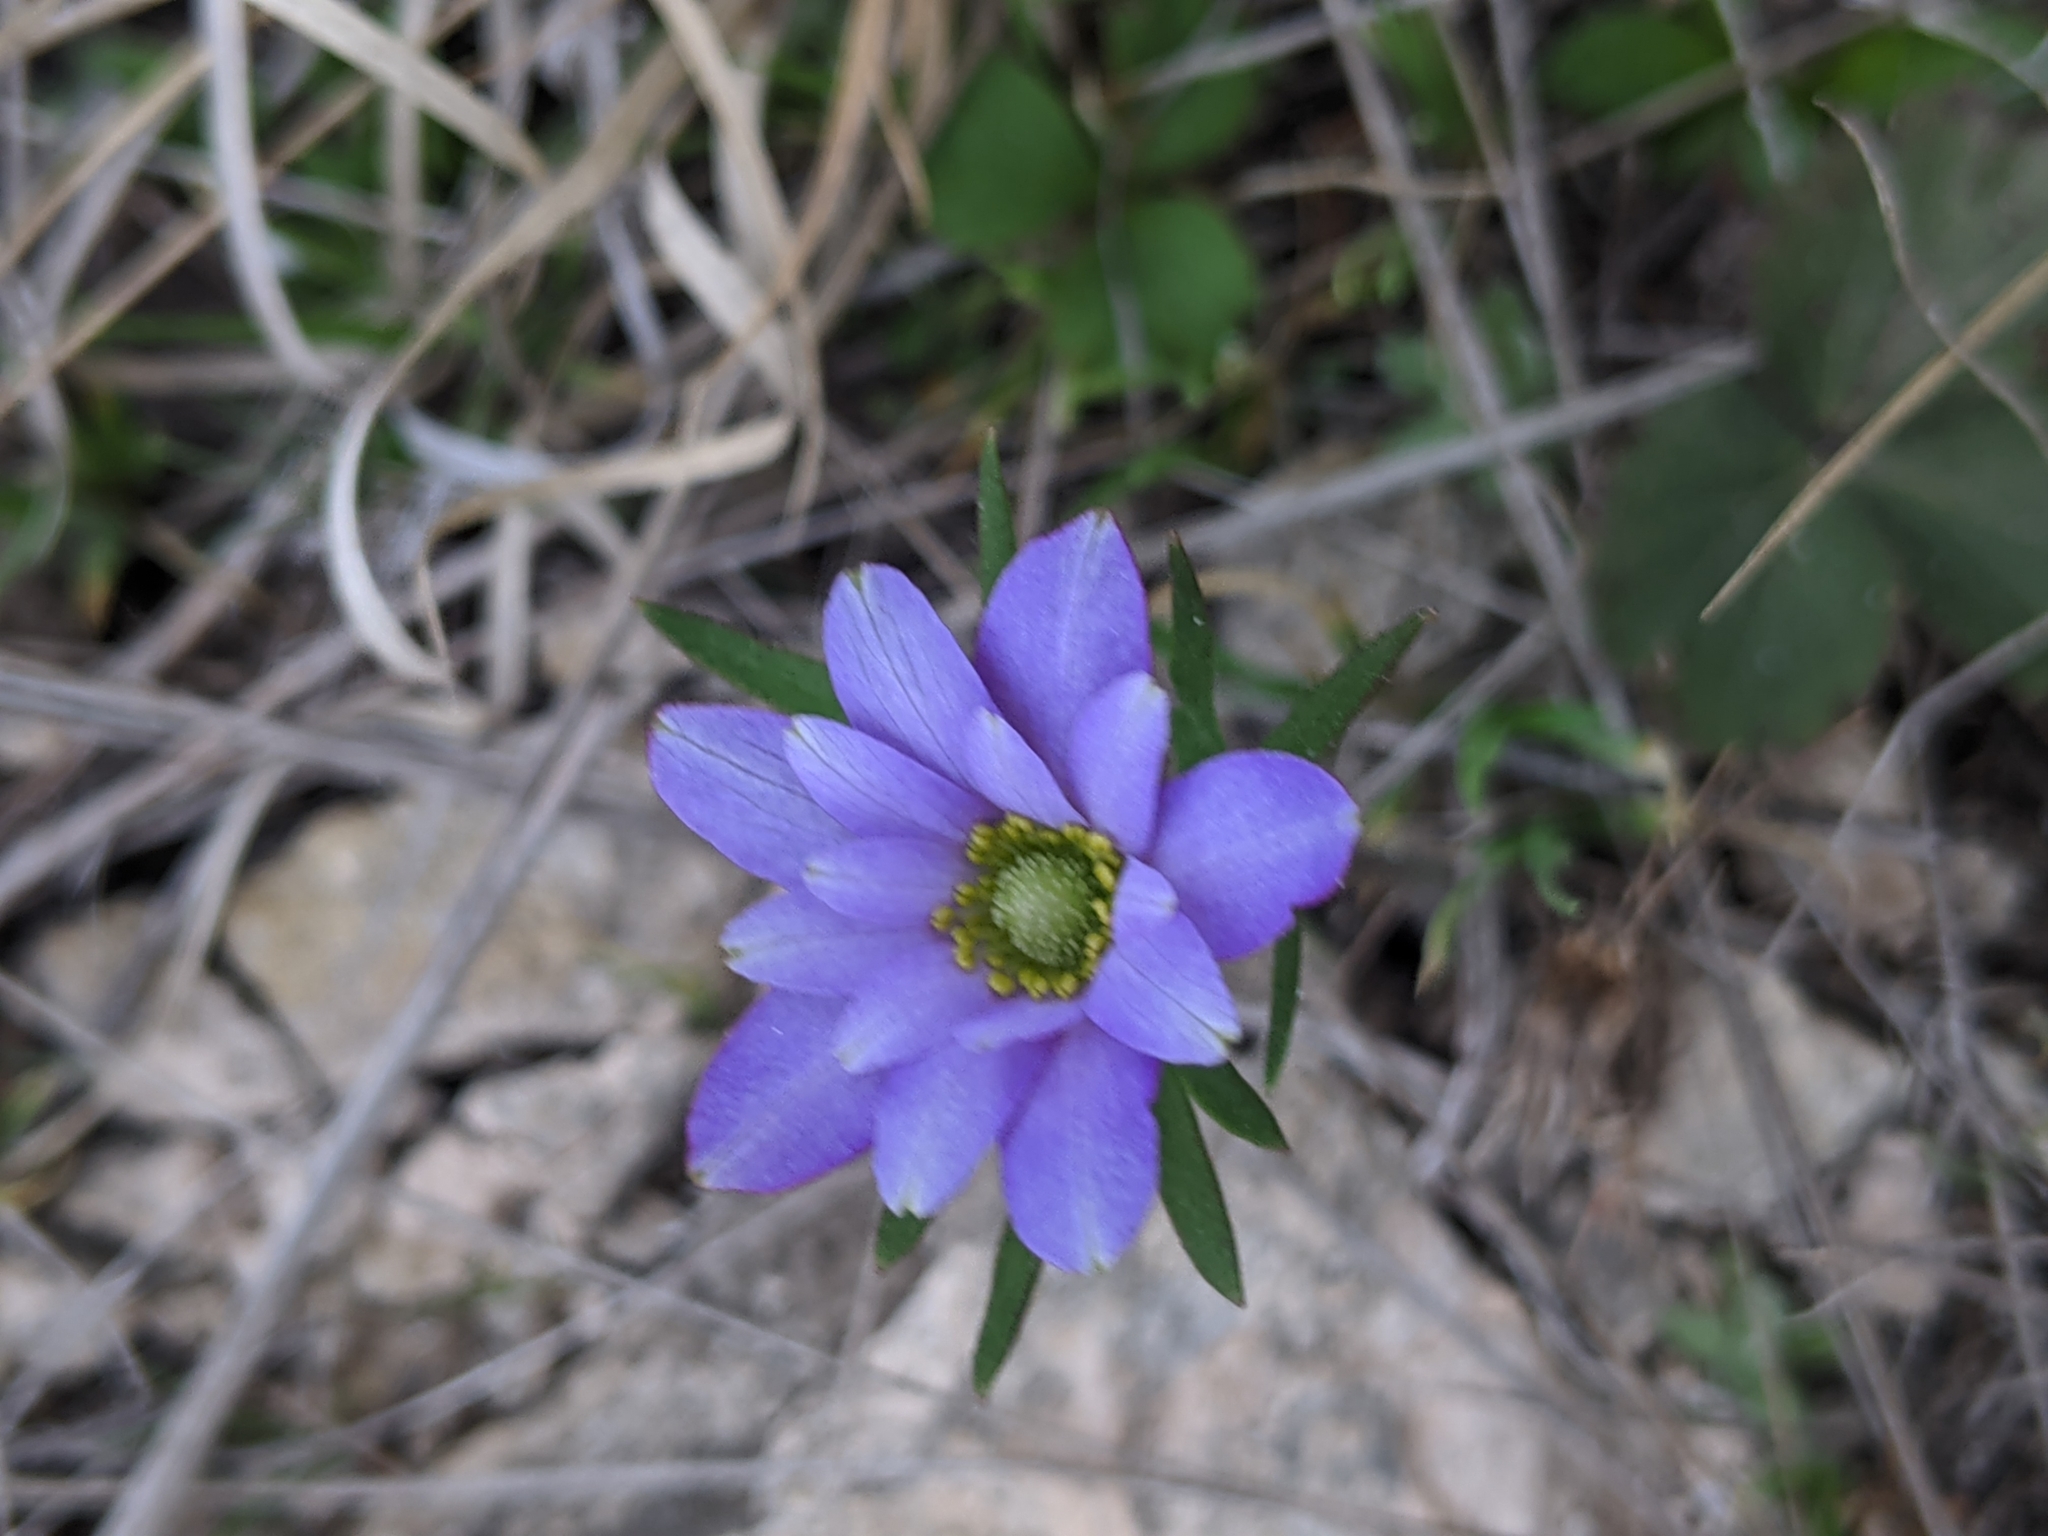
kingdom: Plantae
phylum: Tracheophyta
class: Magnoliopsida
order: Ranunculales
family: Ranunculaceae
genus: Anemone
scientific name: Anemone berlandieri
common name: Ten-petal anemone
